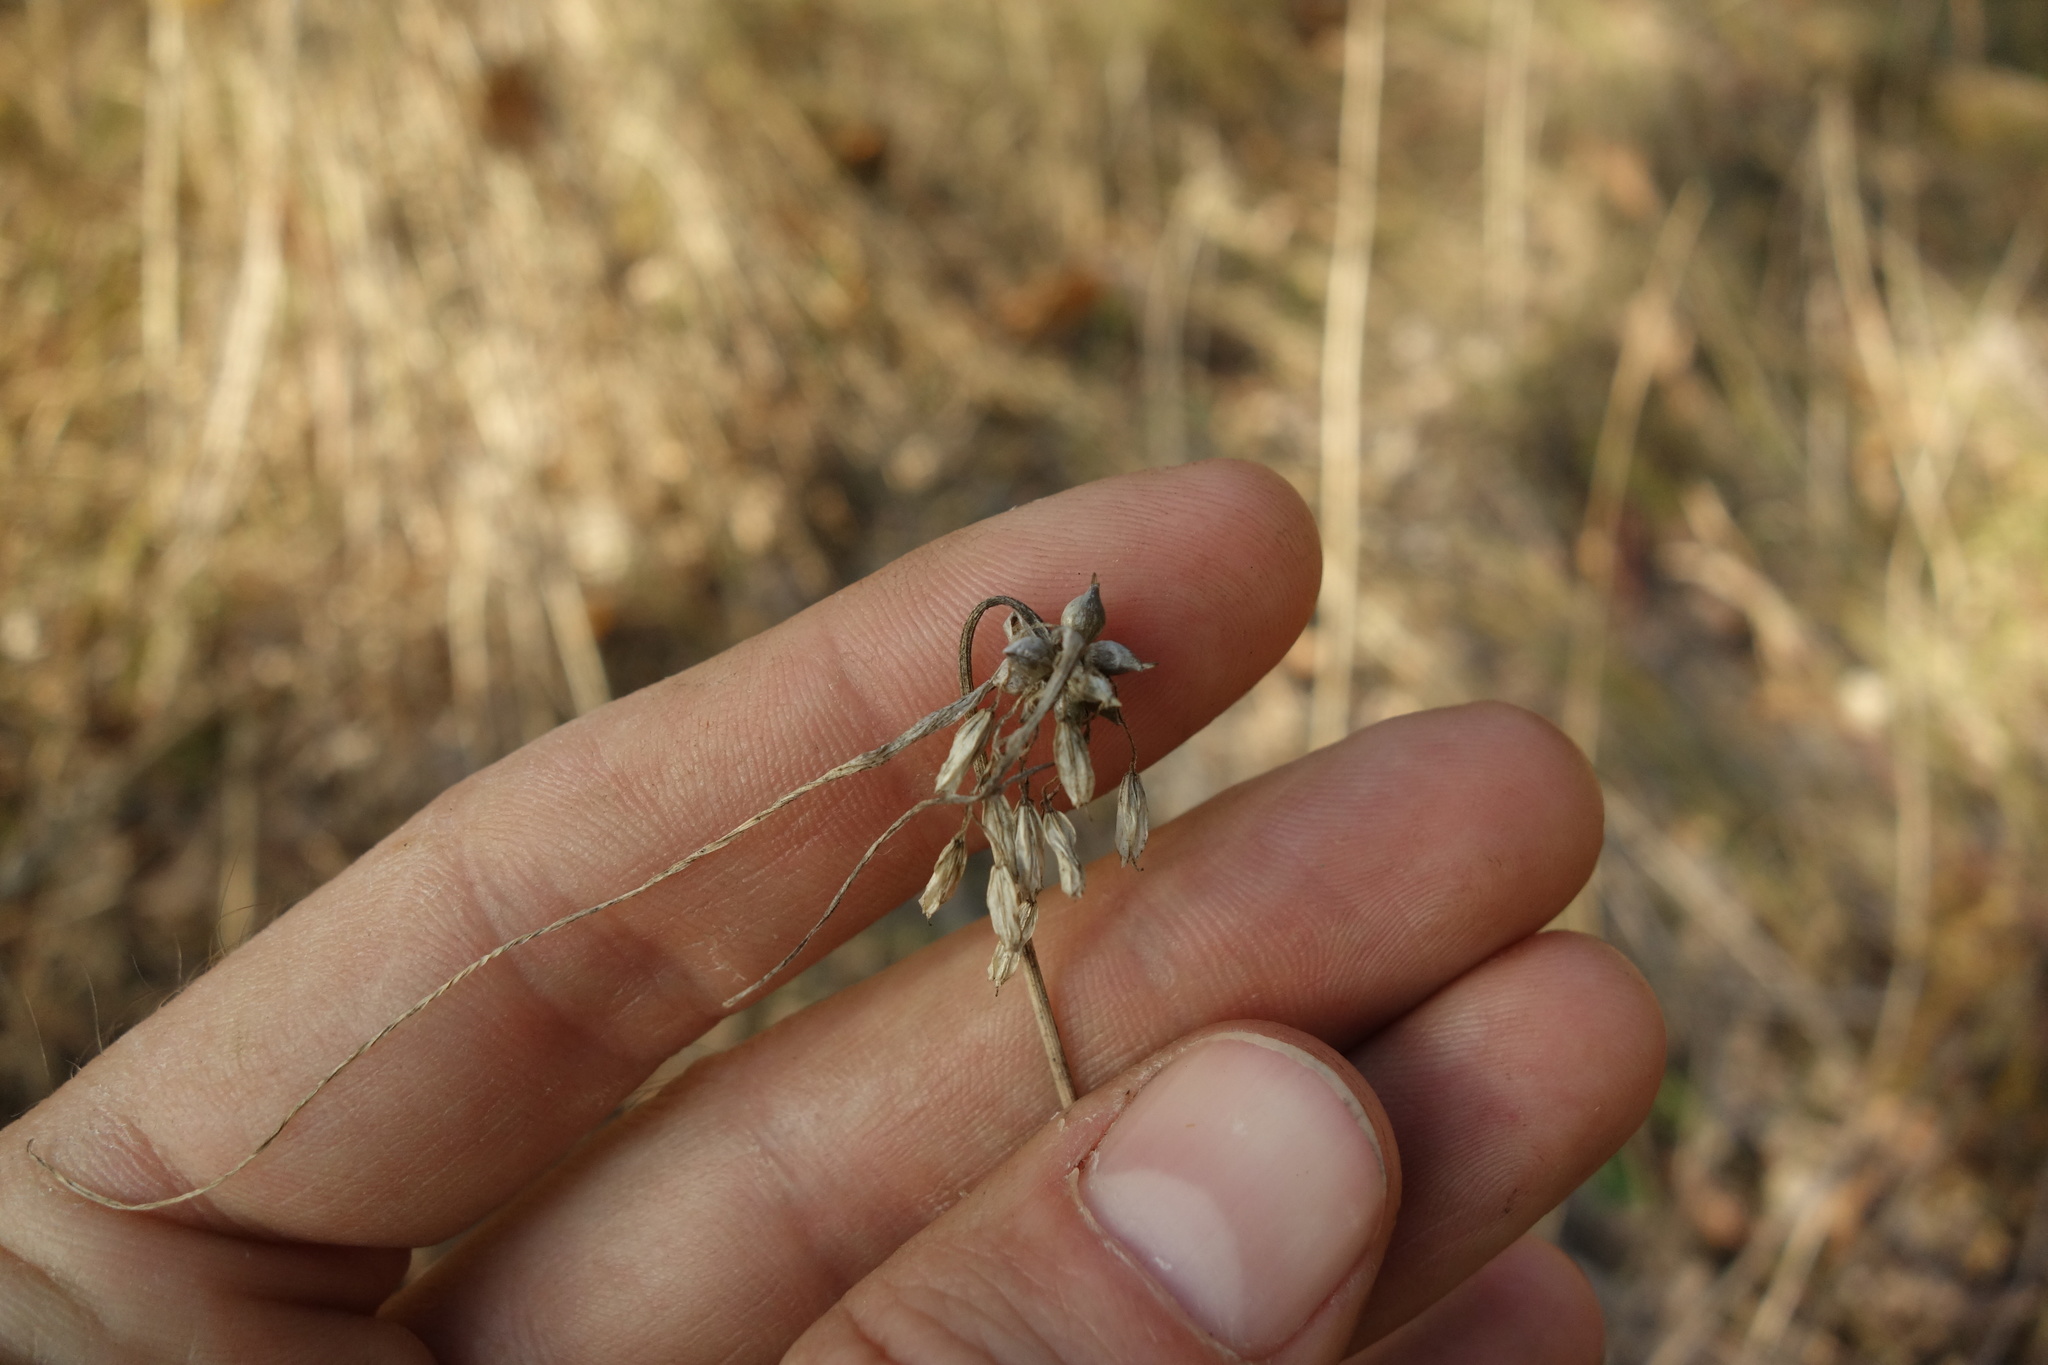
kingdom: Plantae
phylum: Tracheophyta
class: Liliopsida
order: Asparagales
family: Amaryllidaceae
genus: Allium
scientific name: Allium oleraceum
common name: Field garlic
